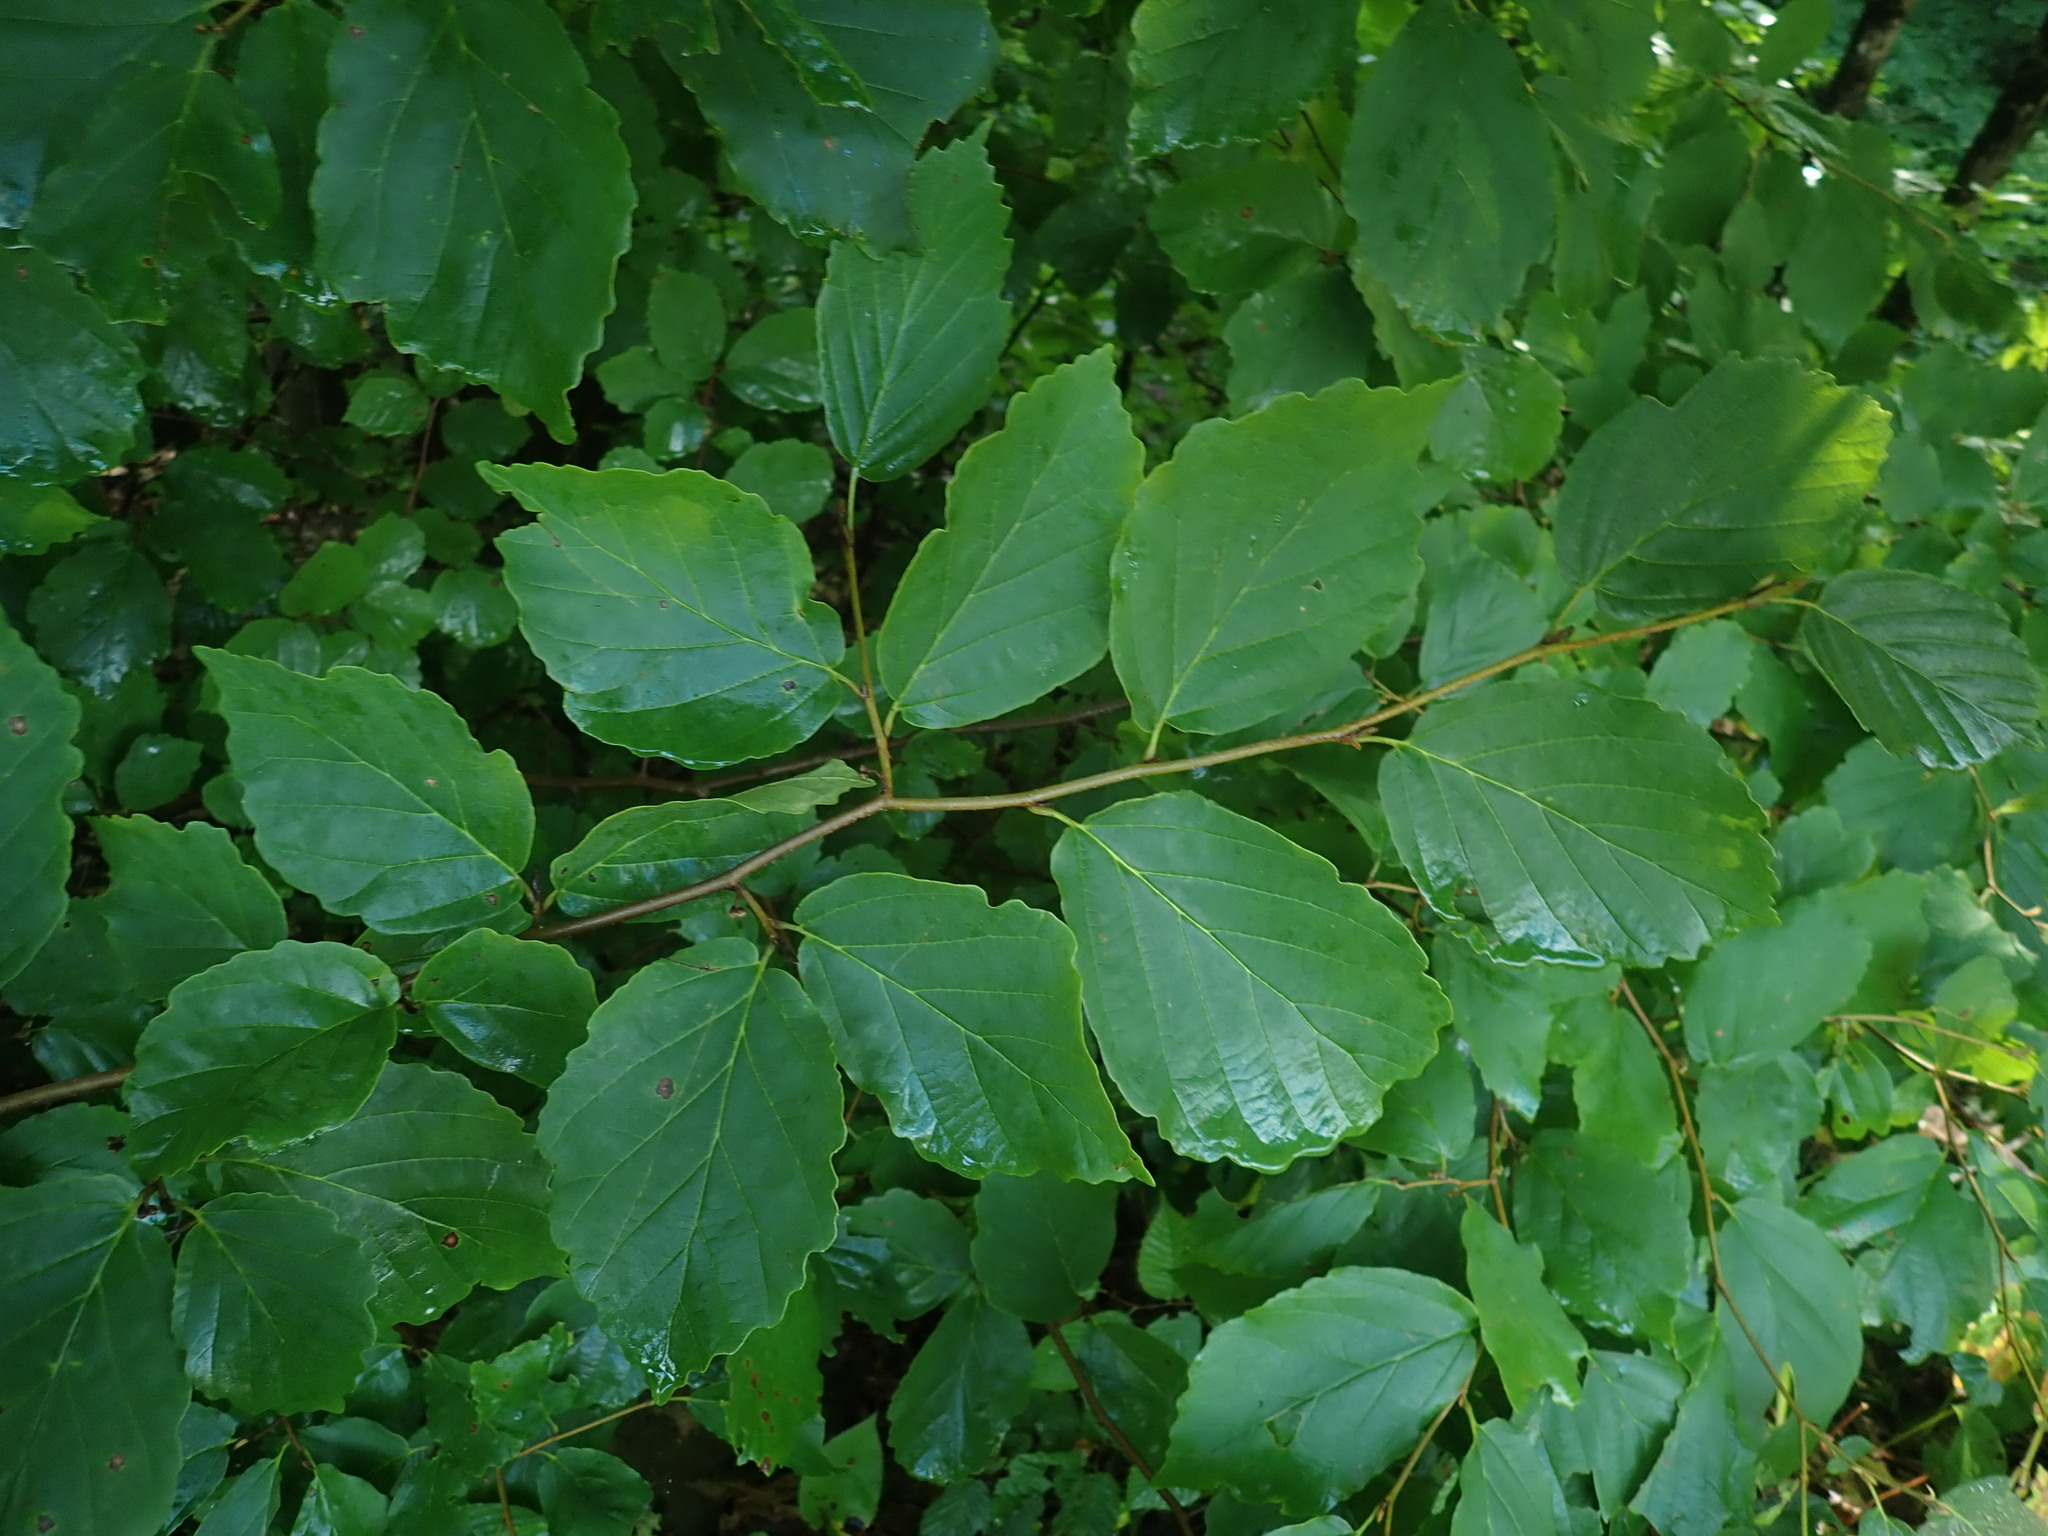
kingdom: Plantae
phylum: Tracheophyta
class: Magnoliopsida
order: Saxifragales
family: Hamamelidaceae
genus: Hamamelis
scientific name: Hamamelis virginiana
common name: Witch-hazel
